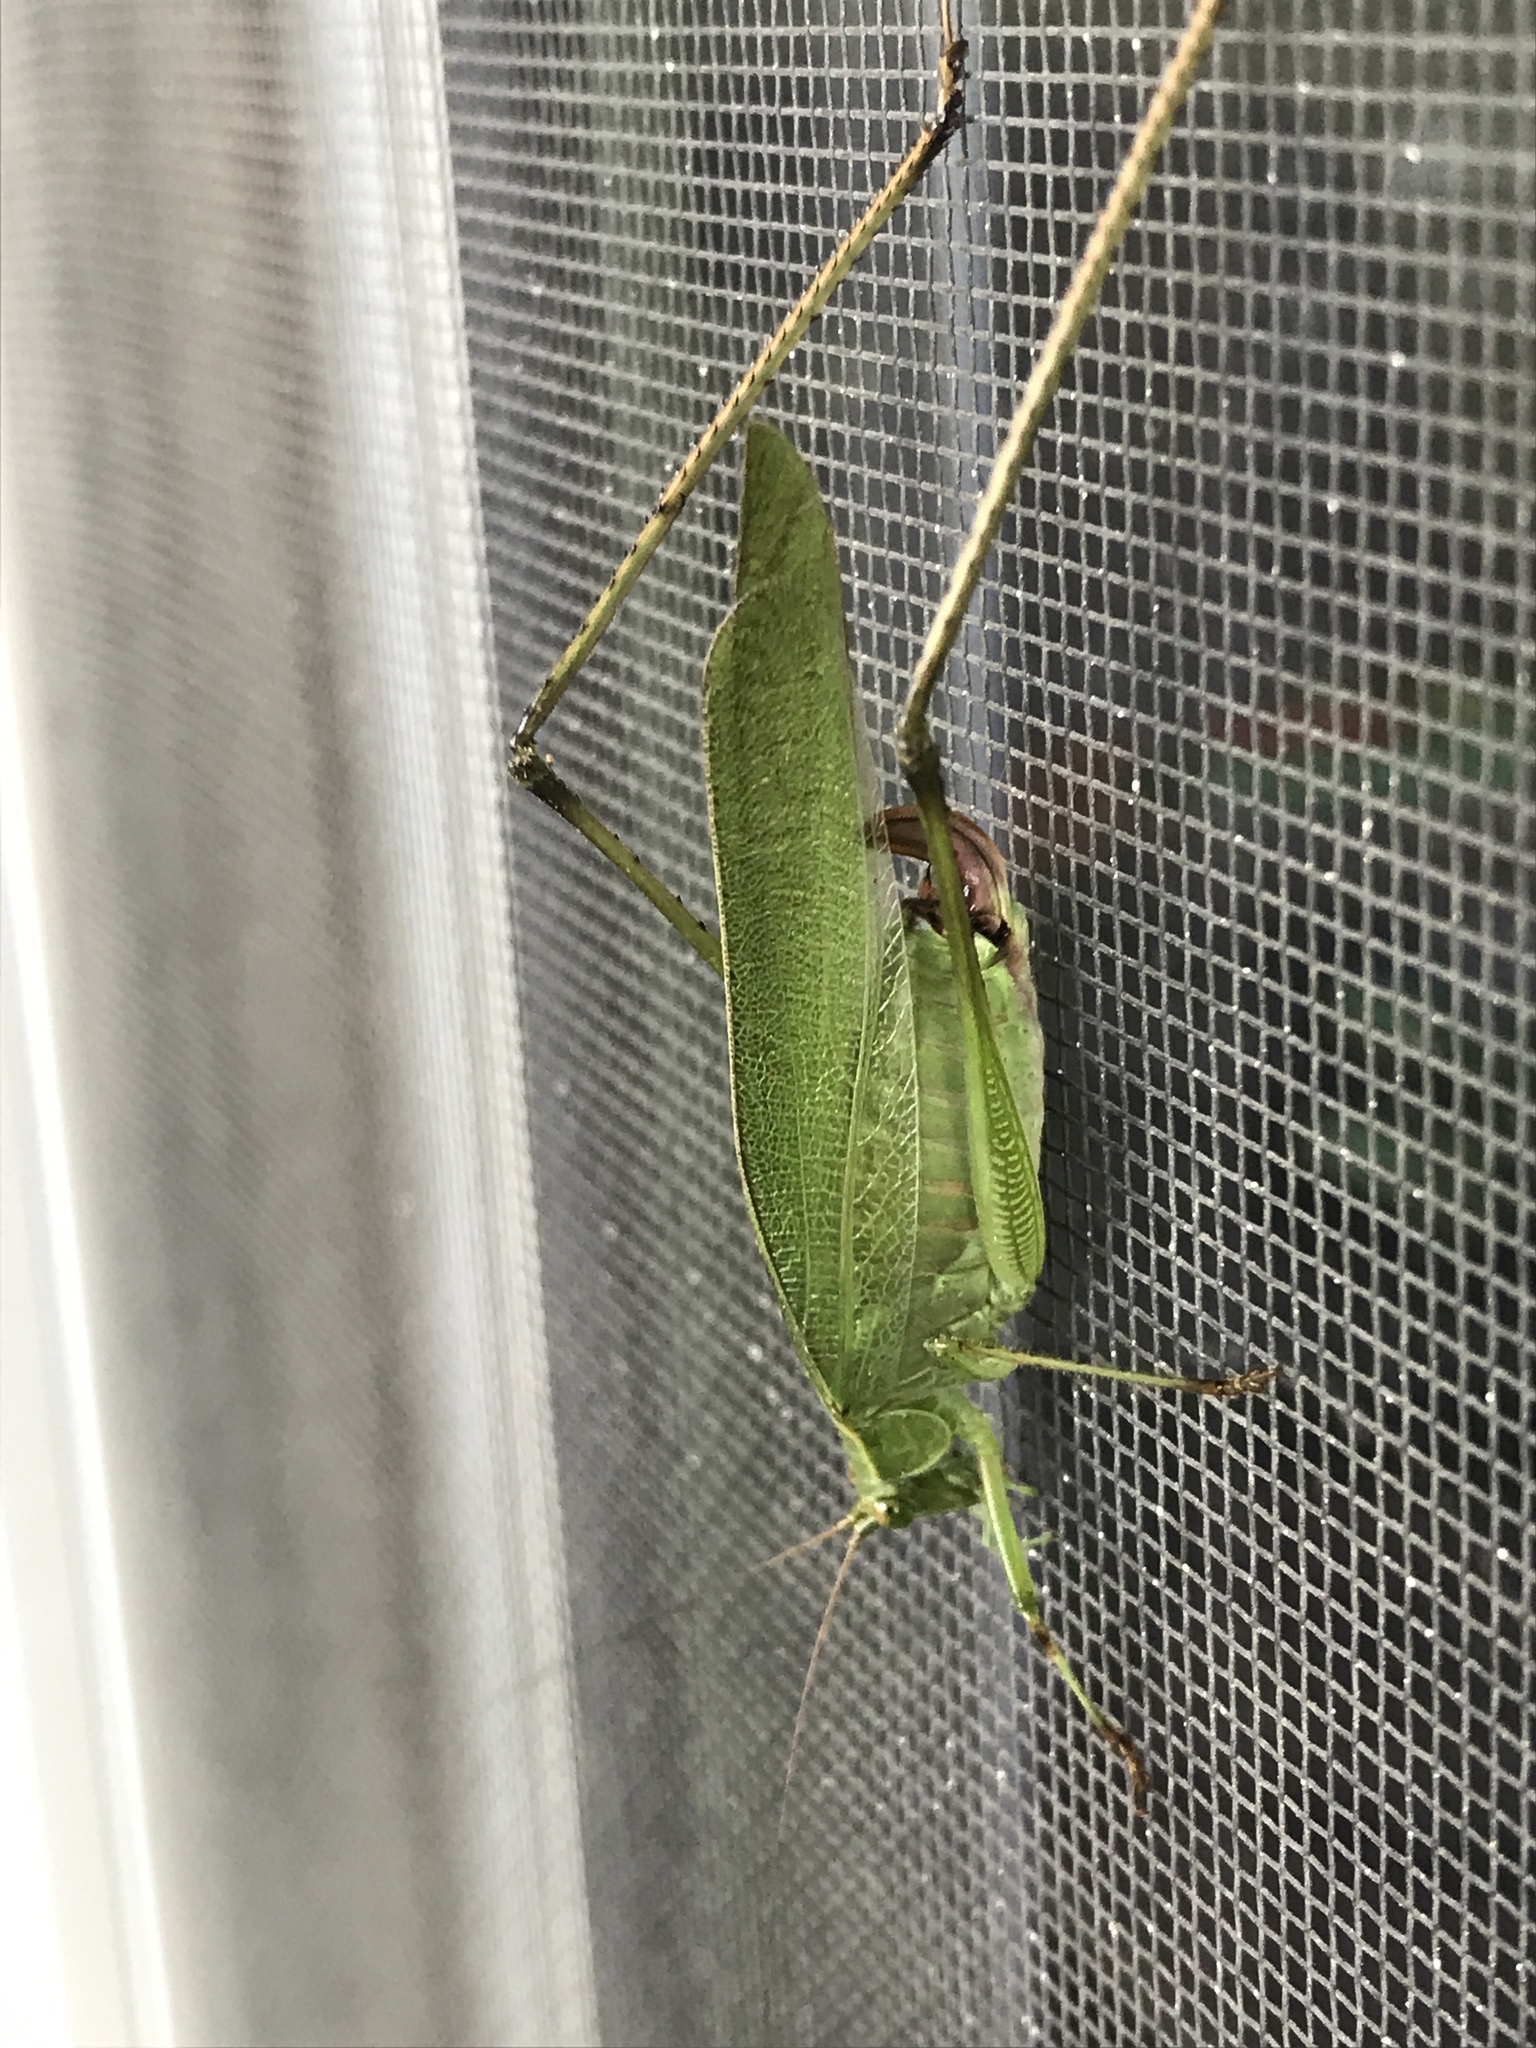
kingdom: Animalia
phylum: Arthropoda
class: Insecta
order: Orthoptera
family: Tettigoniidae
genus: Scudderia
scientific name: Scudderia furcata
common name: Fork-tailed bush katydid
